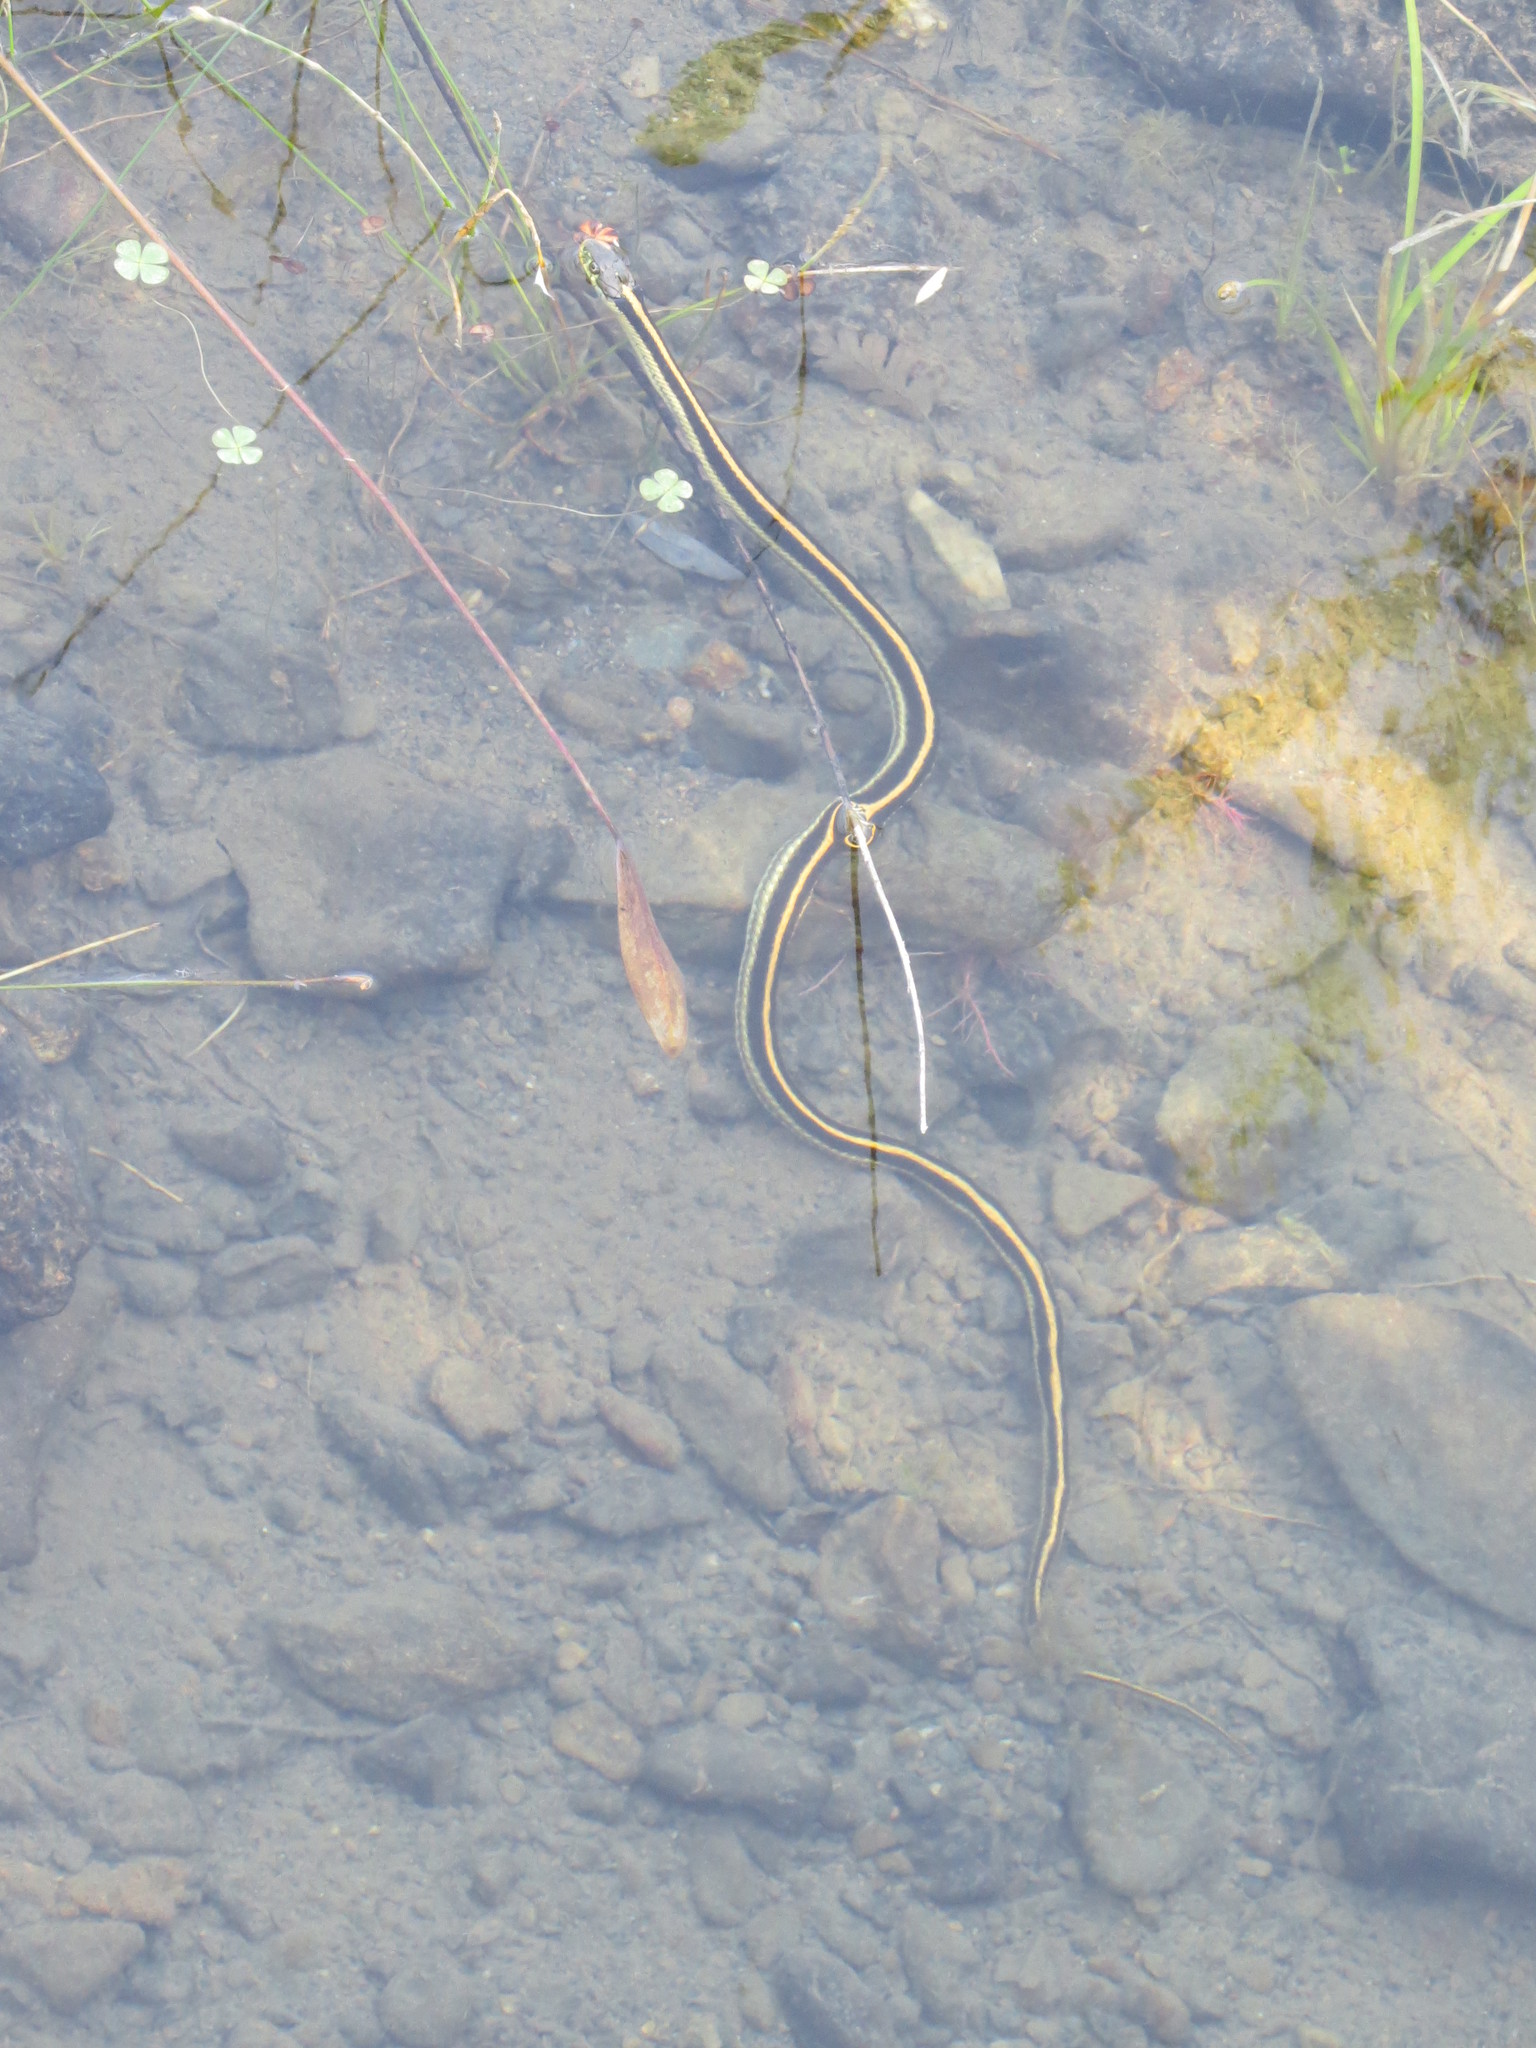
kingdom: Animalia
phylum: Chordata
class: Squamata
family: Colubridae
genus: Thamnophis
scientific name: Thamnophis atratus
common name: Pacific coast aquatic garter snake
